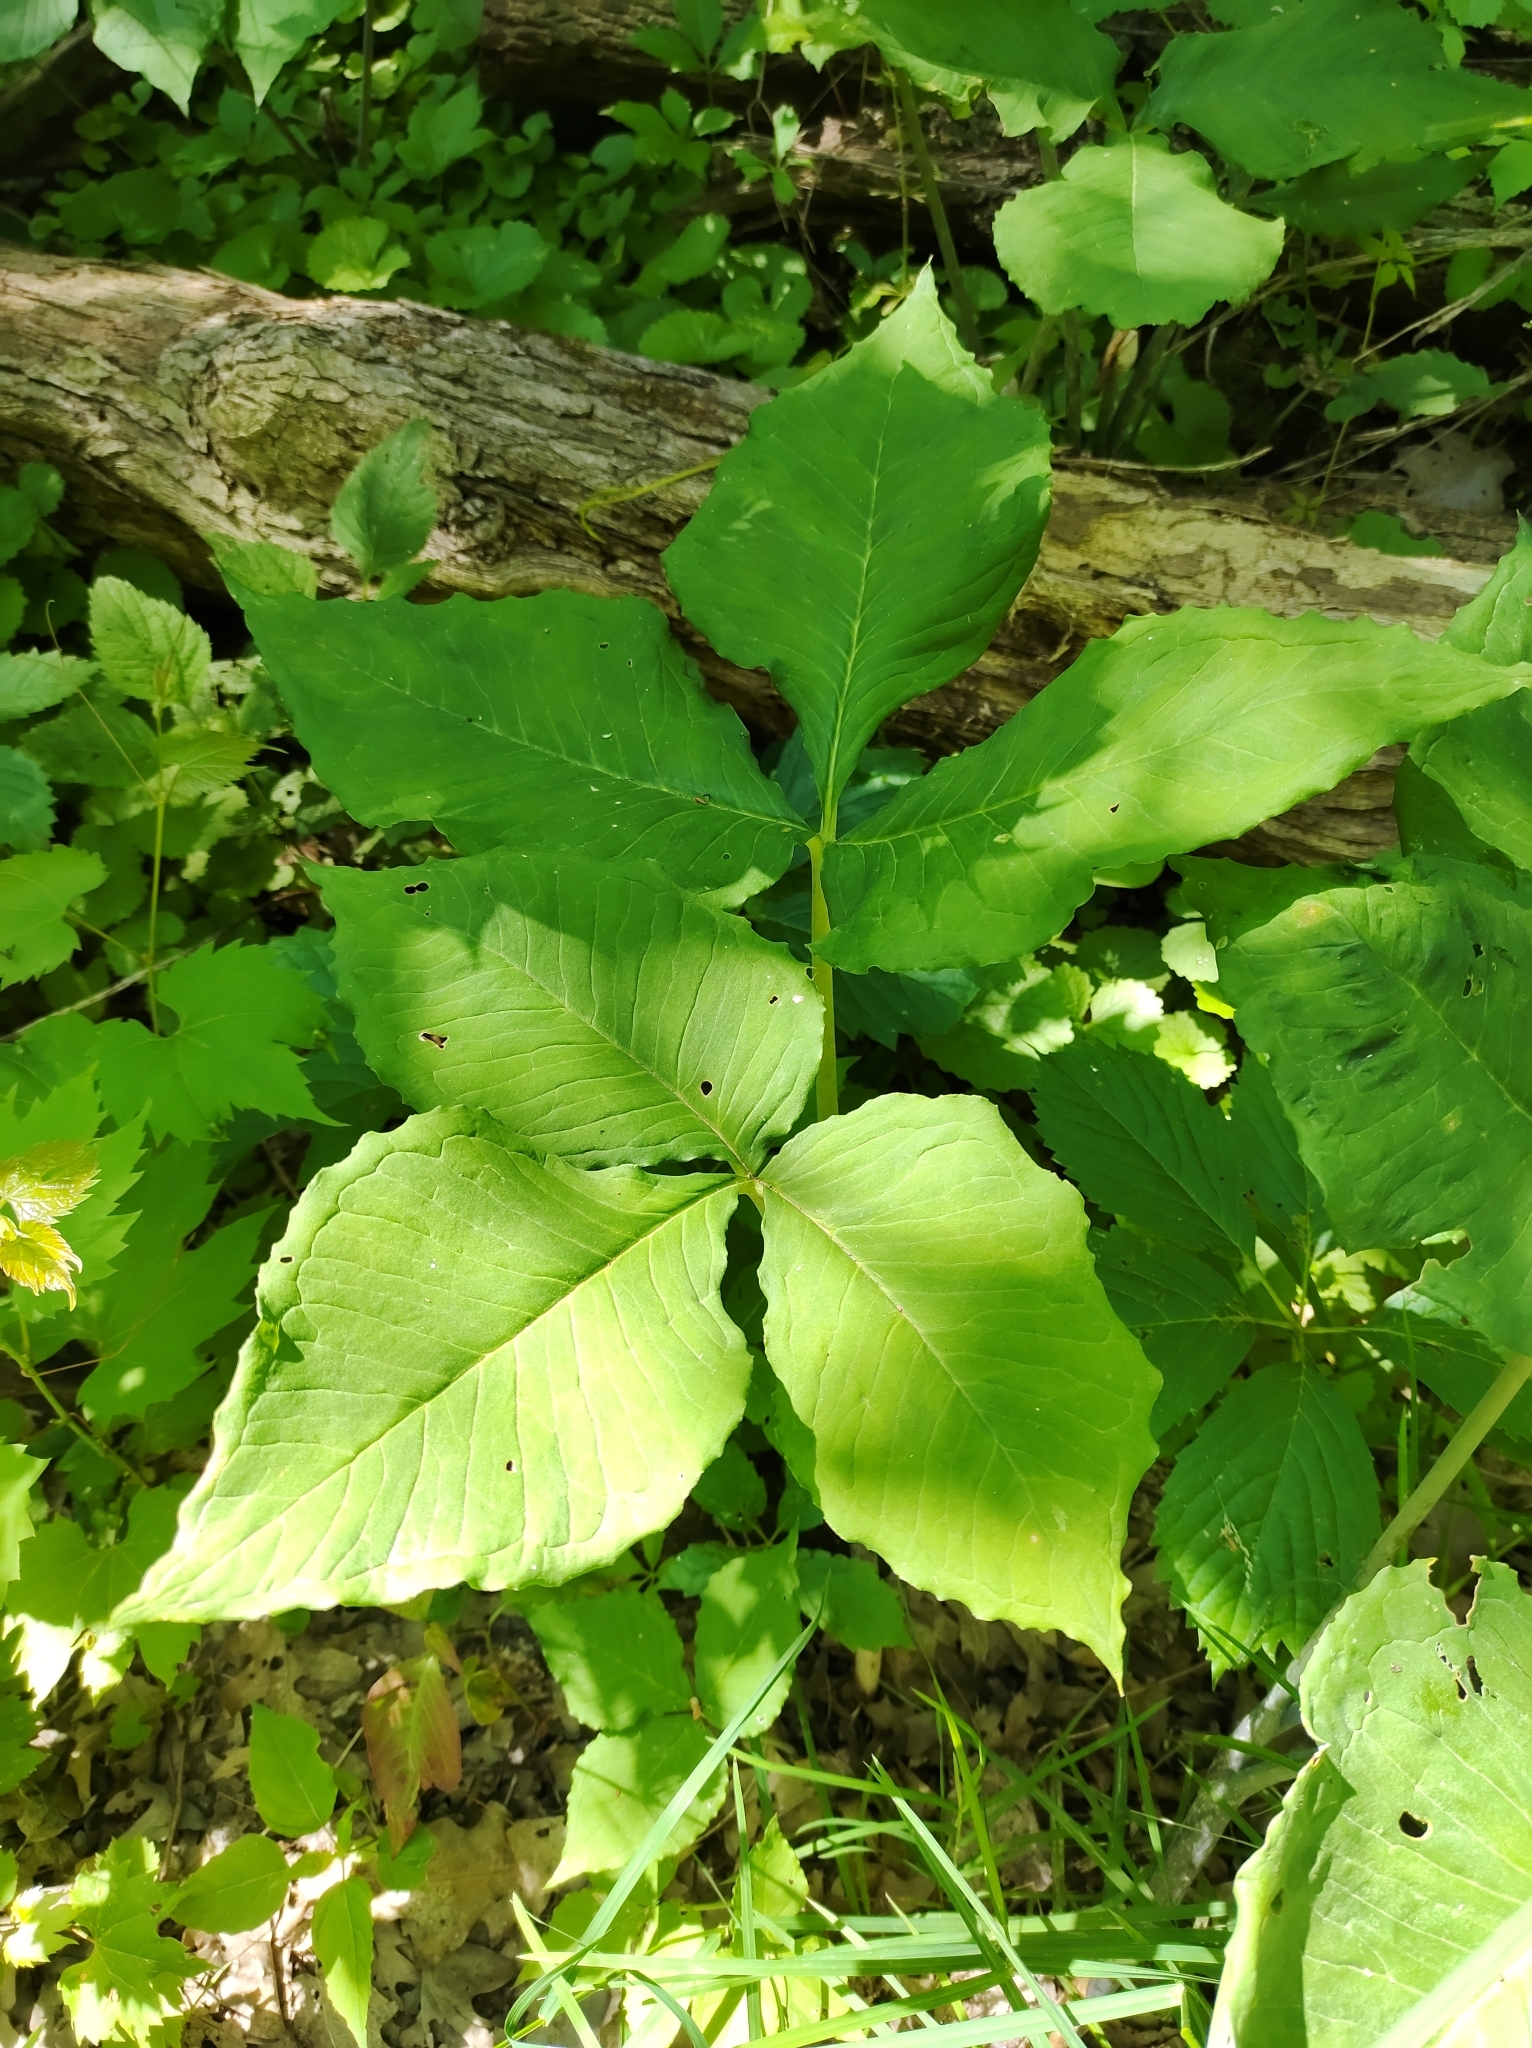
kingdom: Plantae
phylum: Tracheophyta
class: Liliopsida
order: Alismatales
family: Araceae
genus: Arisaema
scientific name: Arisaema triphyllum
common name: Jack-in-the-pulpit
